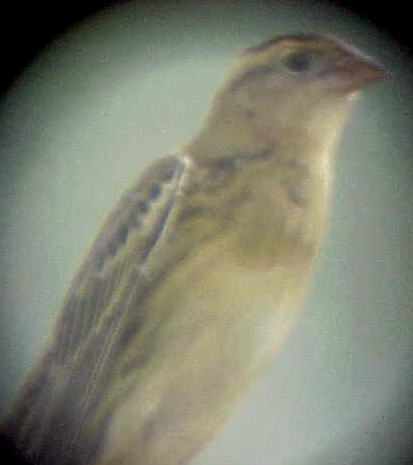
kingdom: Animalia
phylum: Chordata
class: Aves
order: Passeriformes
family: Icteridae
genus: Dolichonyx
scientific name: Dolichonyx oryzivorus
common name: Bobolink
